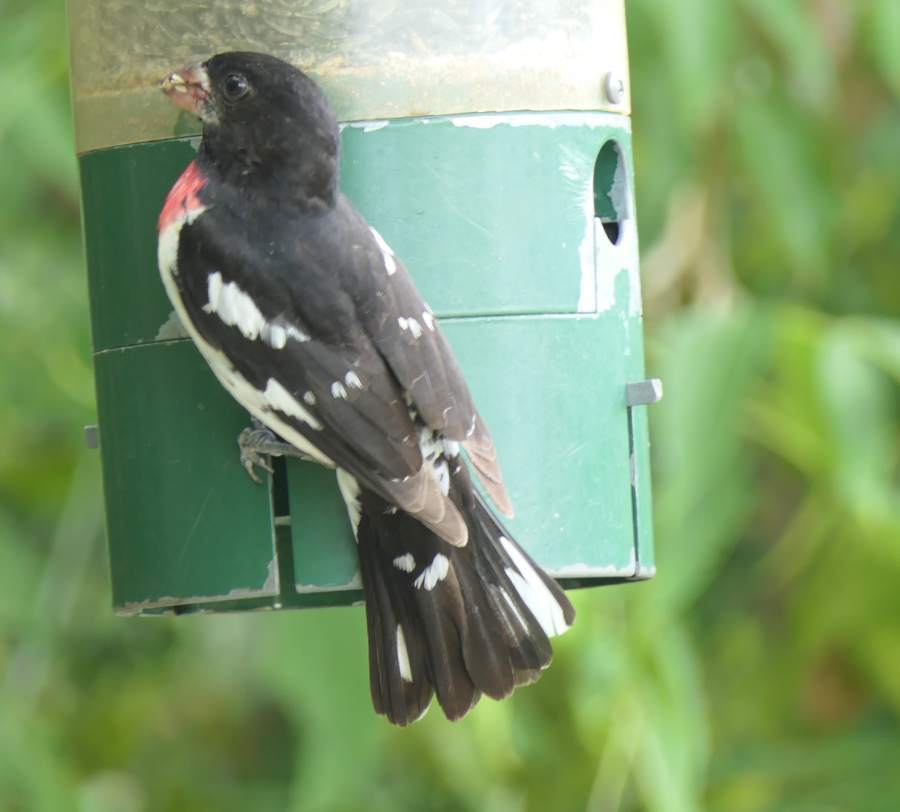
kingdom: Animalia
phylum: Chordata
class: Aves
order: Passeriformes
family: Cardinalidae
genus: Pheucticus
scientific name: Pheucticus ludovicianus
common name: Rose-breasted grosbeak
